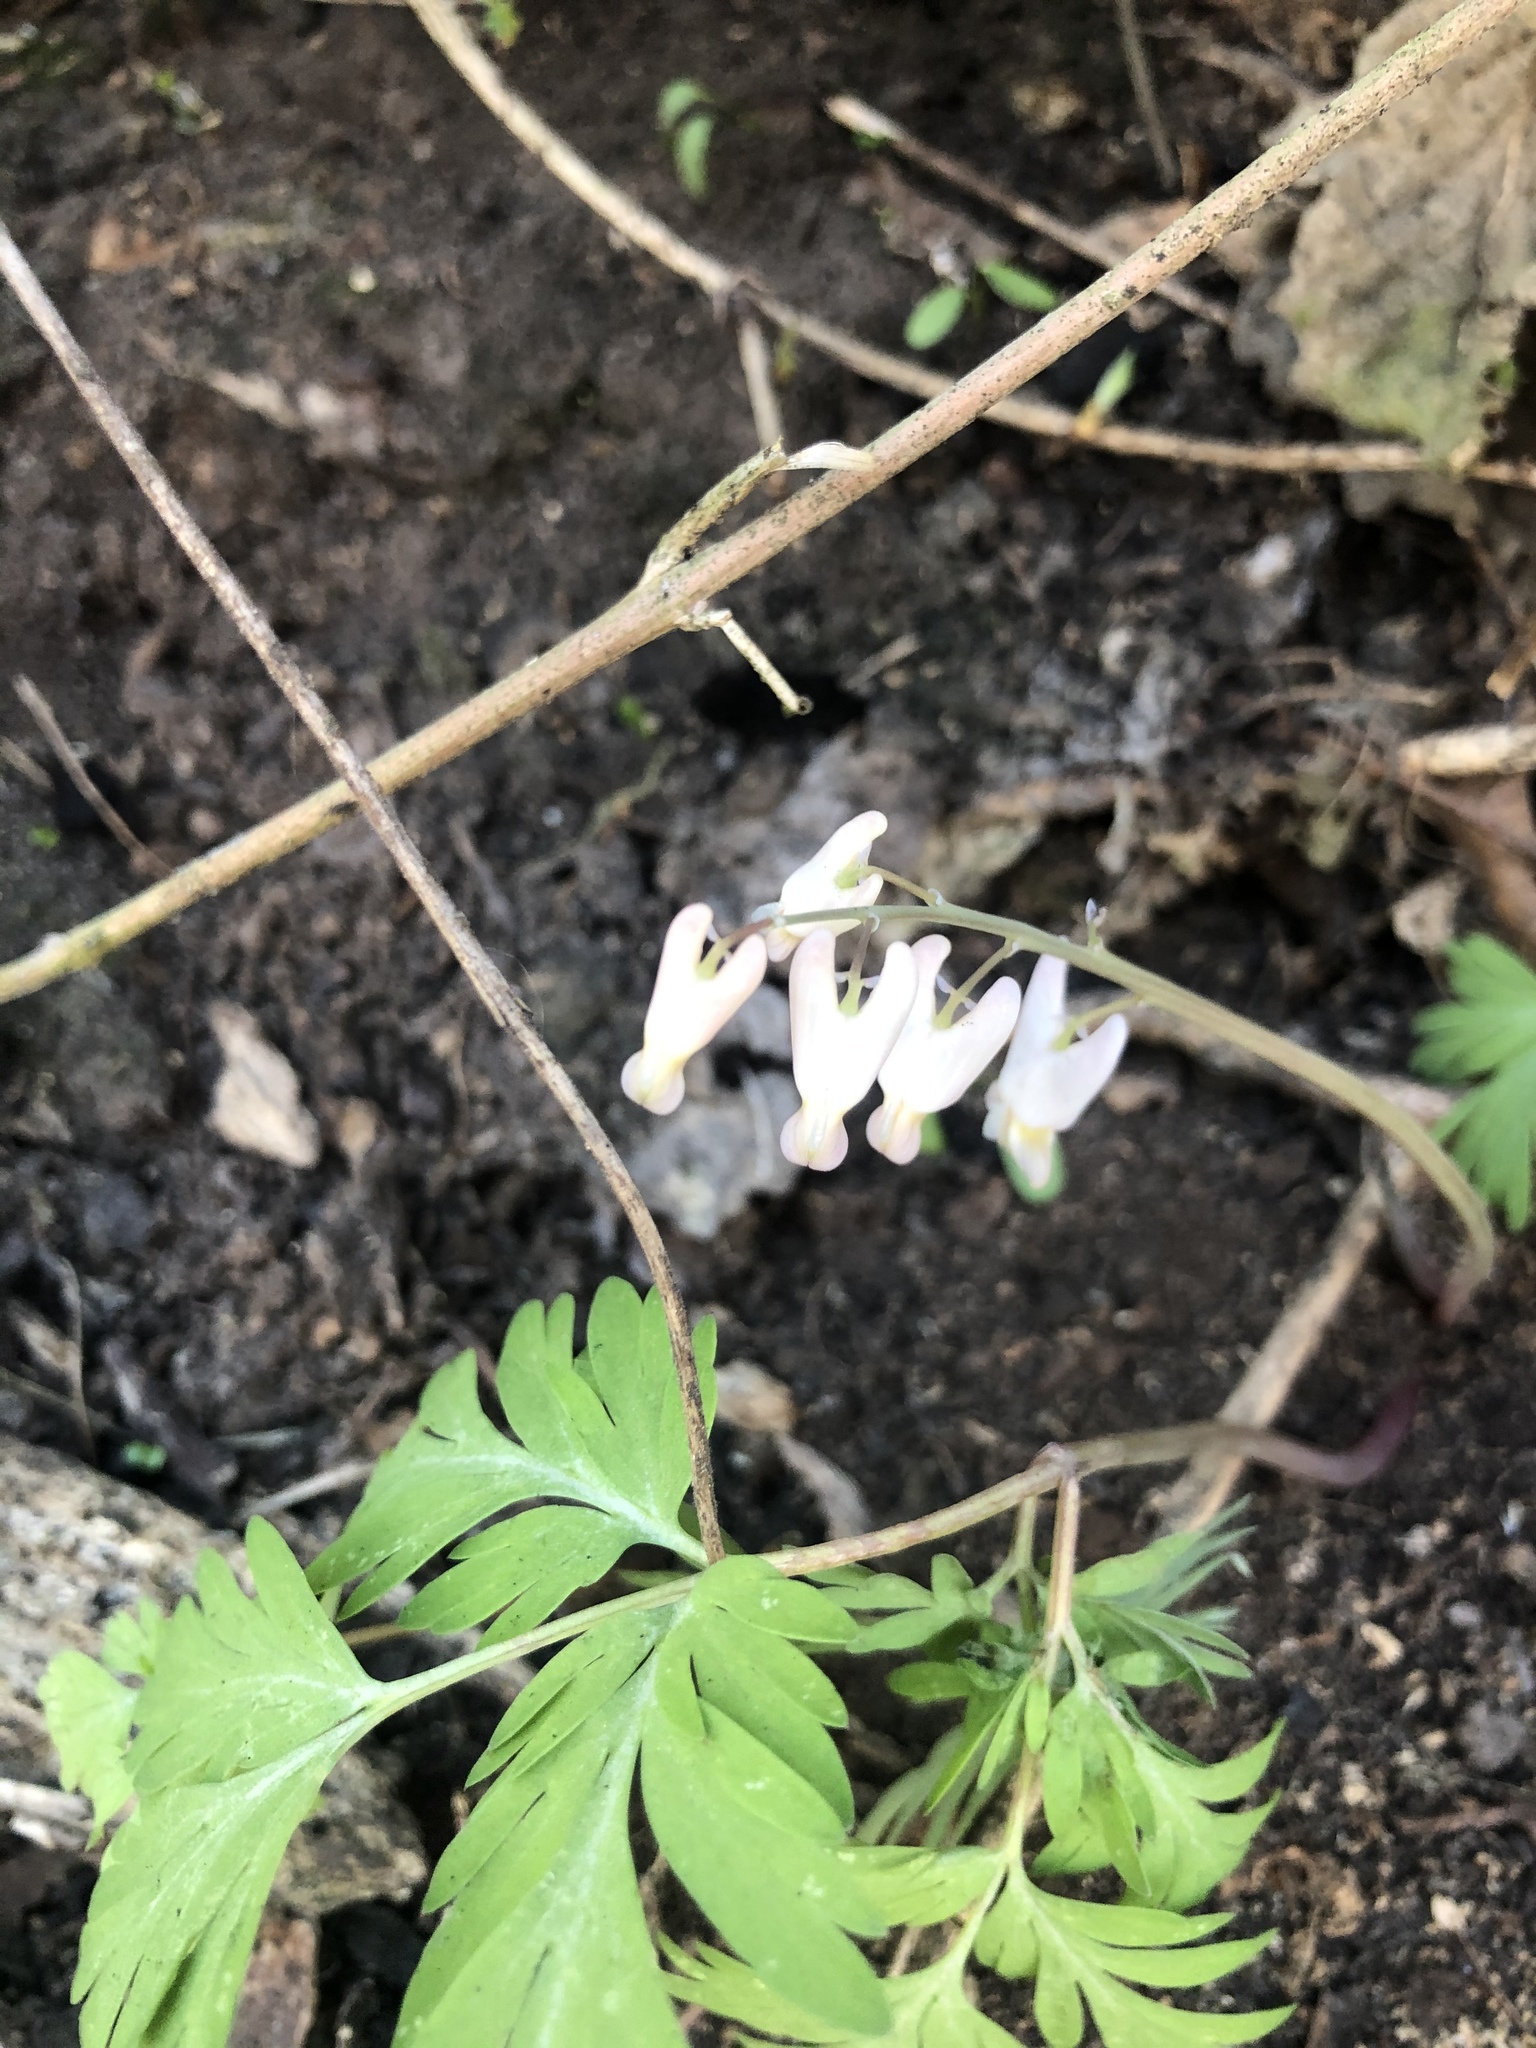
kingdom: Plantae
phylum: Tracheophyta
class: Magnoliopsida
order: Ranunculales
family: Papaveraceae
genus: Dicentra
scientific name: Dicentra cucullaria
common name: Dutchman's breeches
